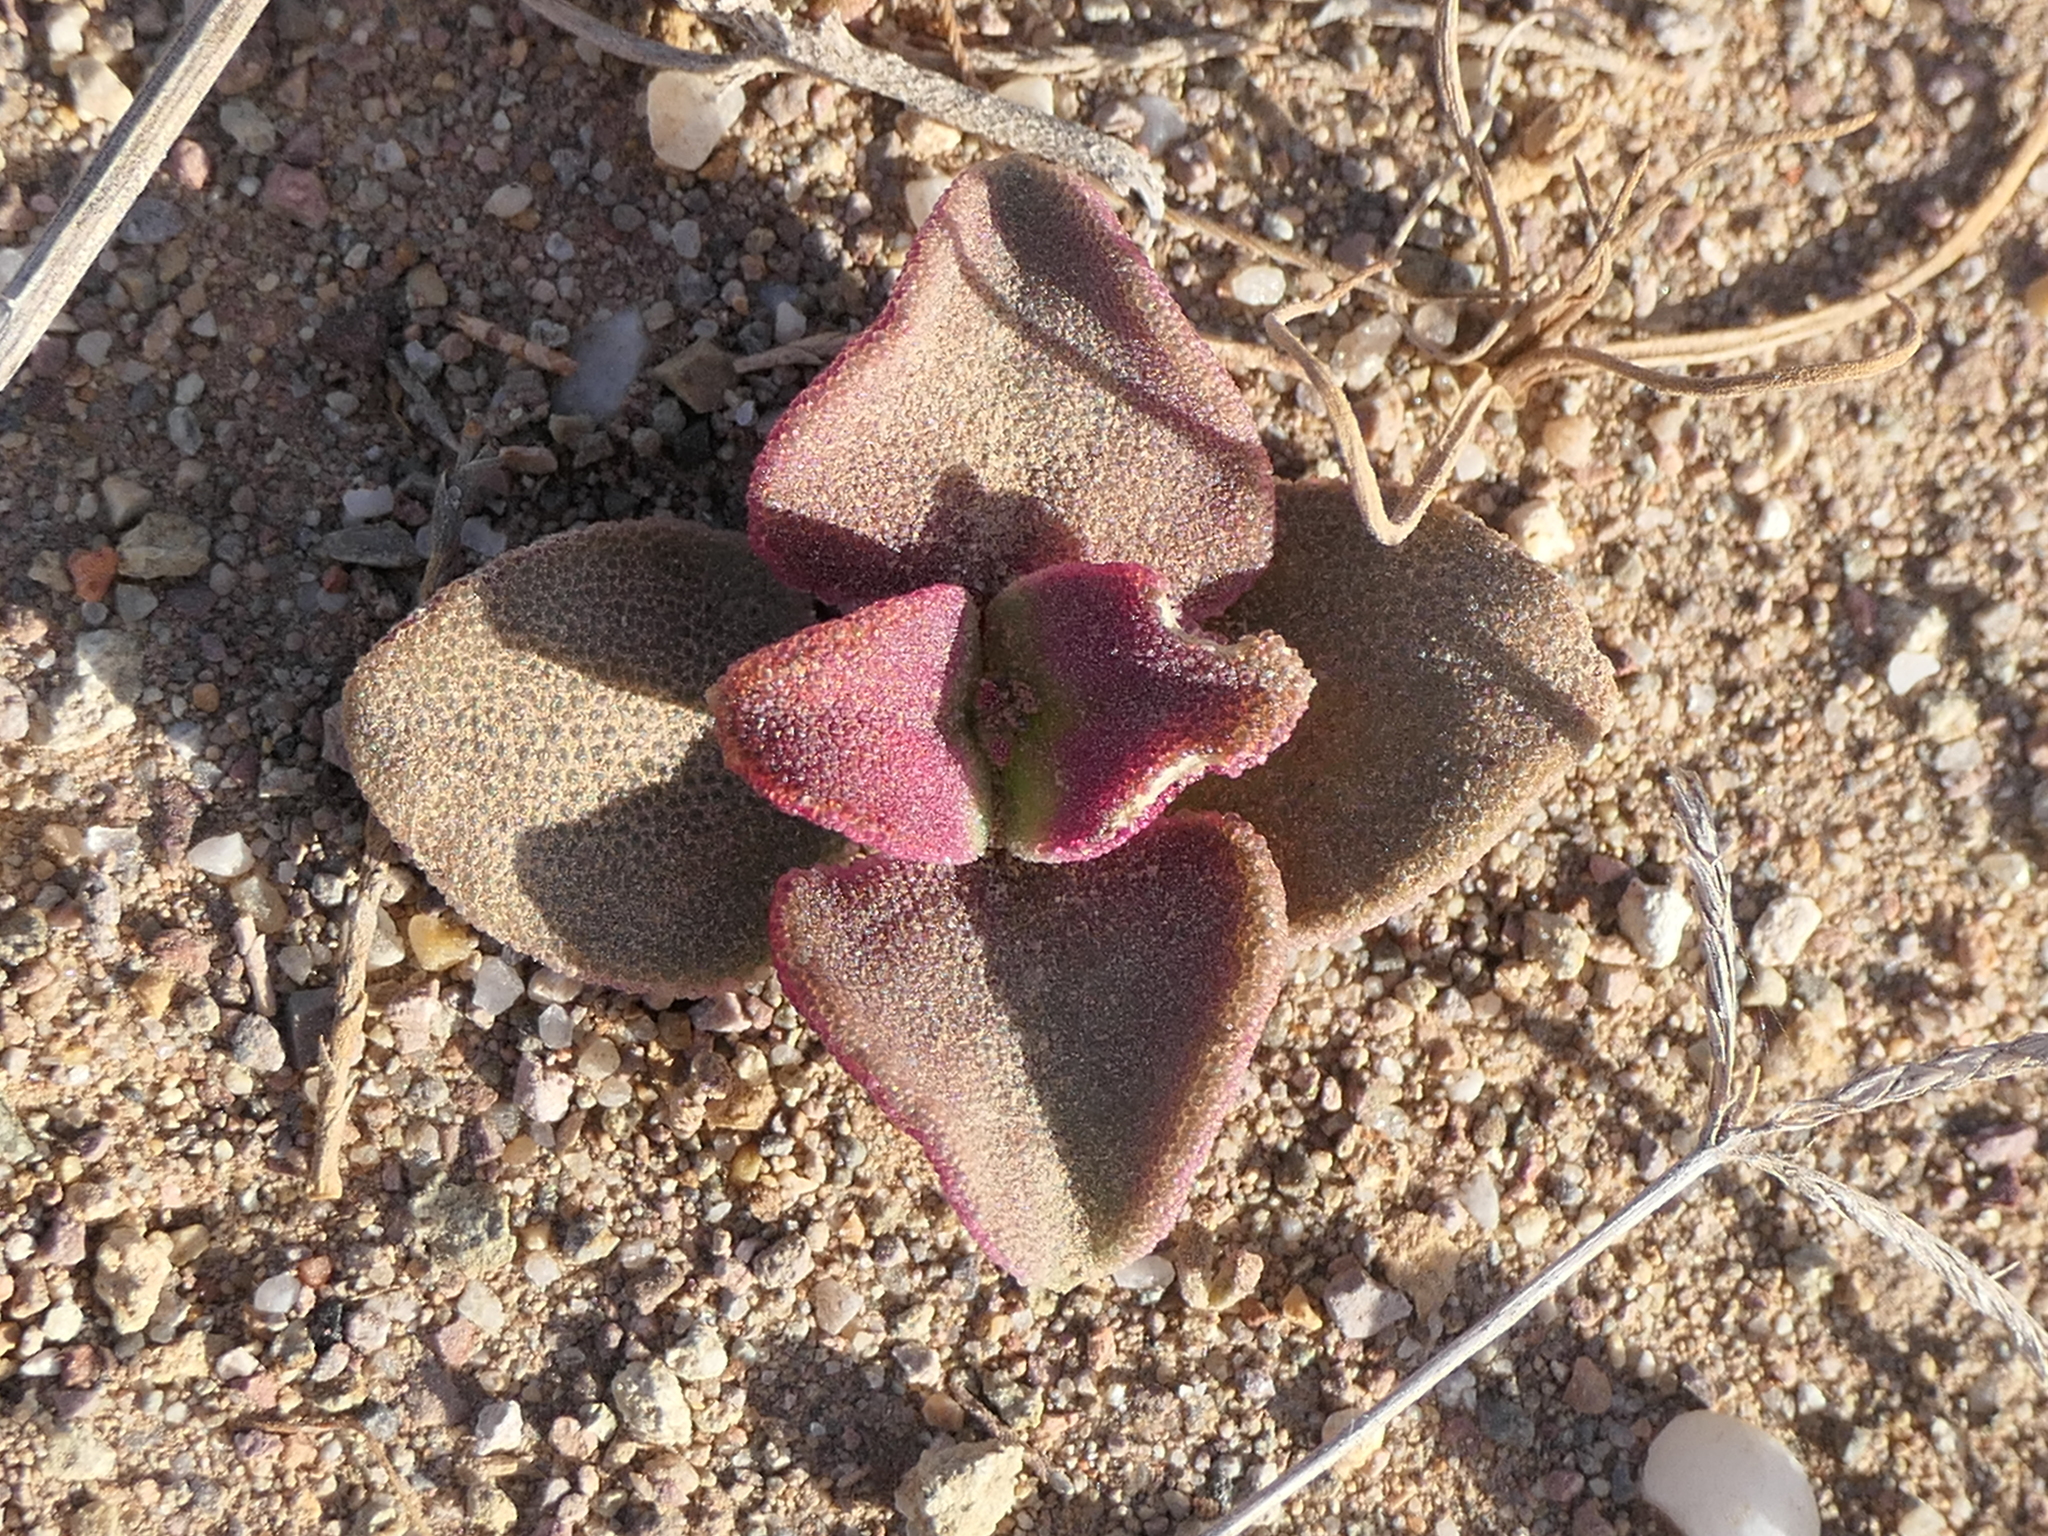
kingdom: Plantae
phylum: Tracheophyta
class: Magnoliopsida
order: Caryophyllales
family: Aizoaceae
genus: Mesembryanthemum
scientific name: Mesembryanthemum crystallinum
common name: Common iceplant
